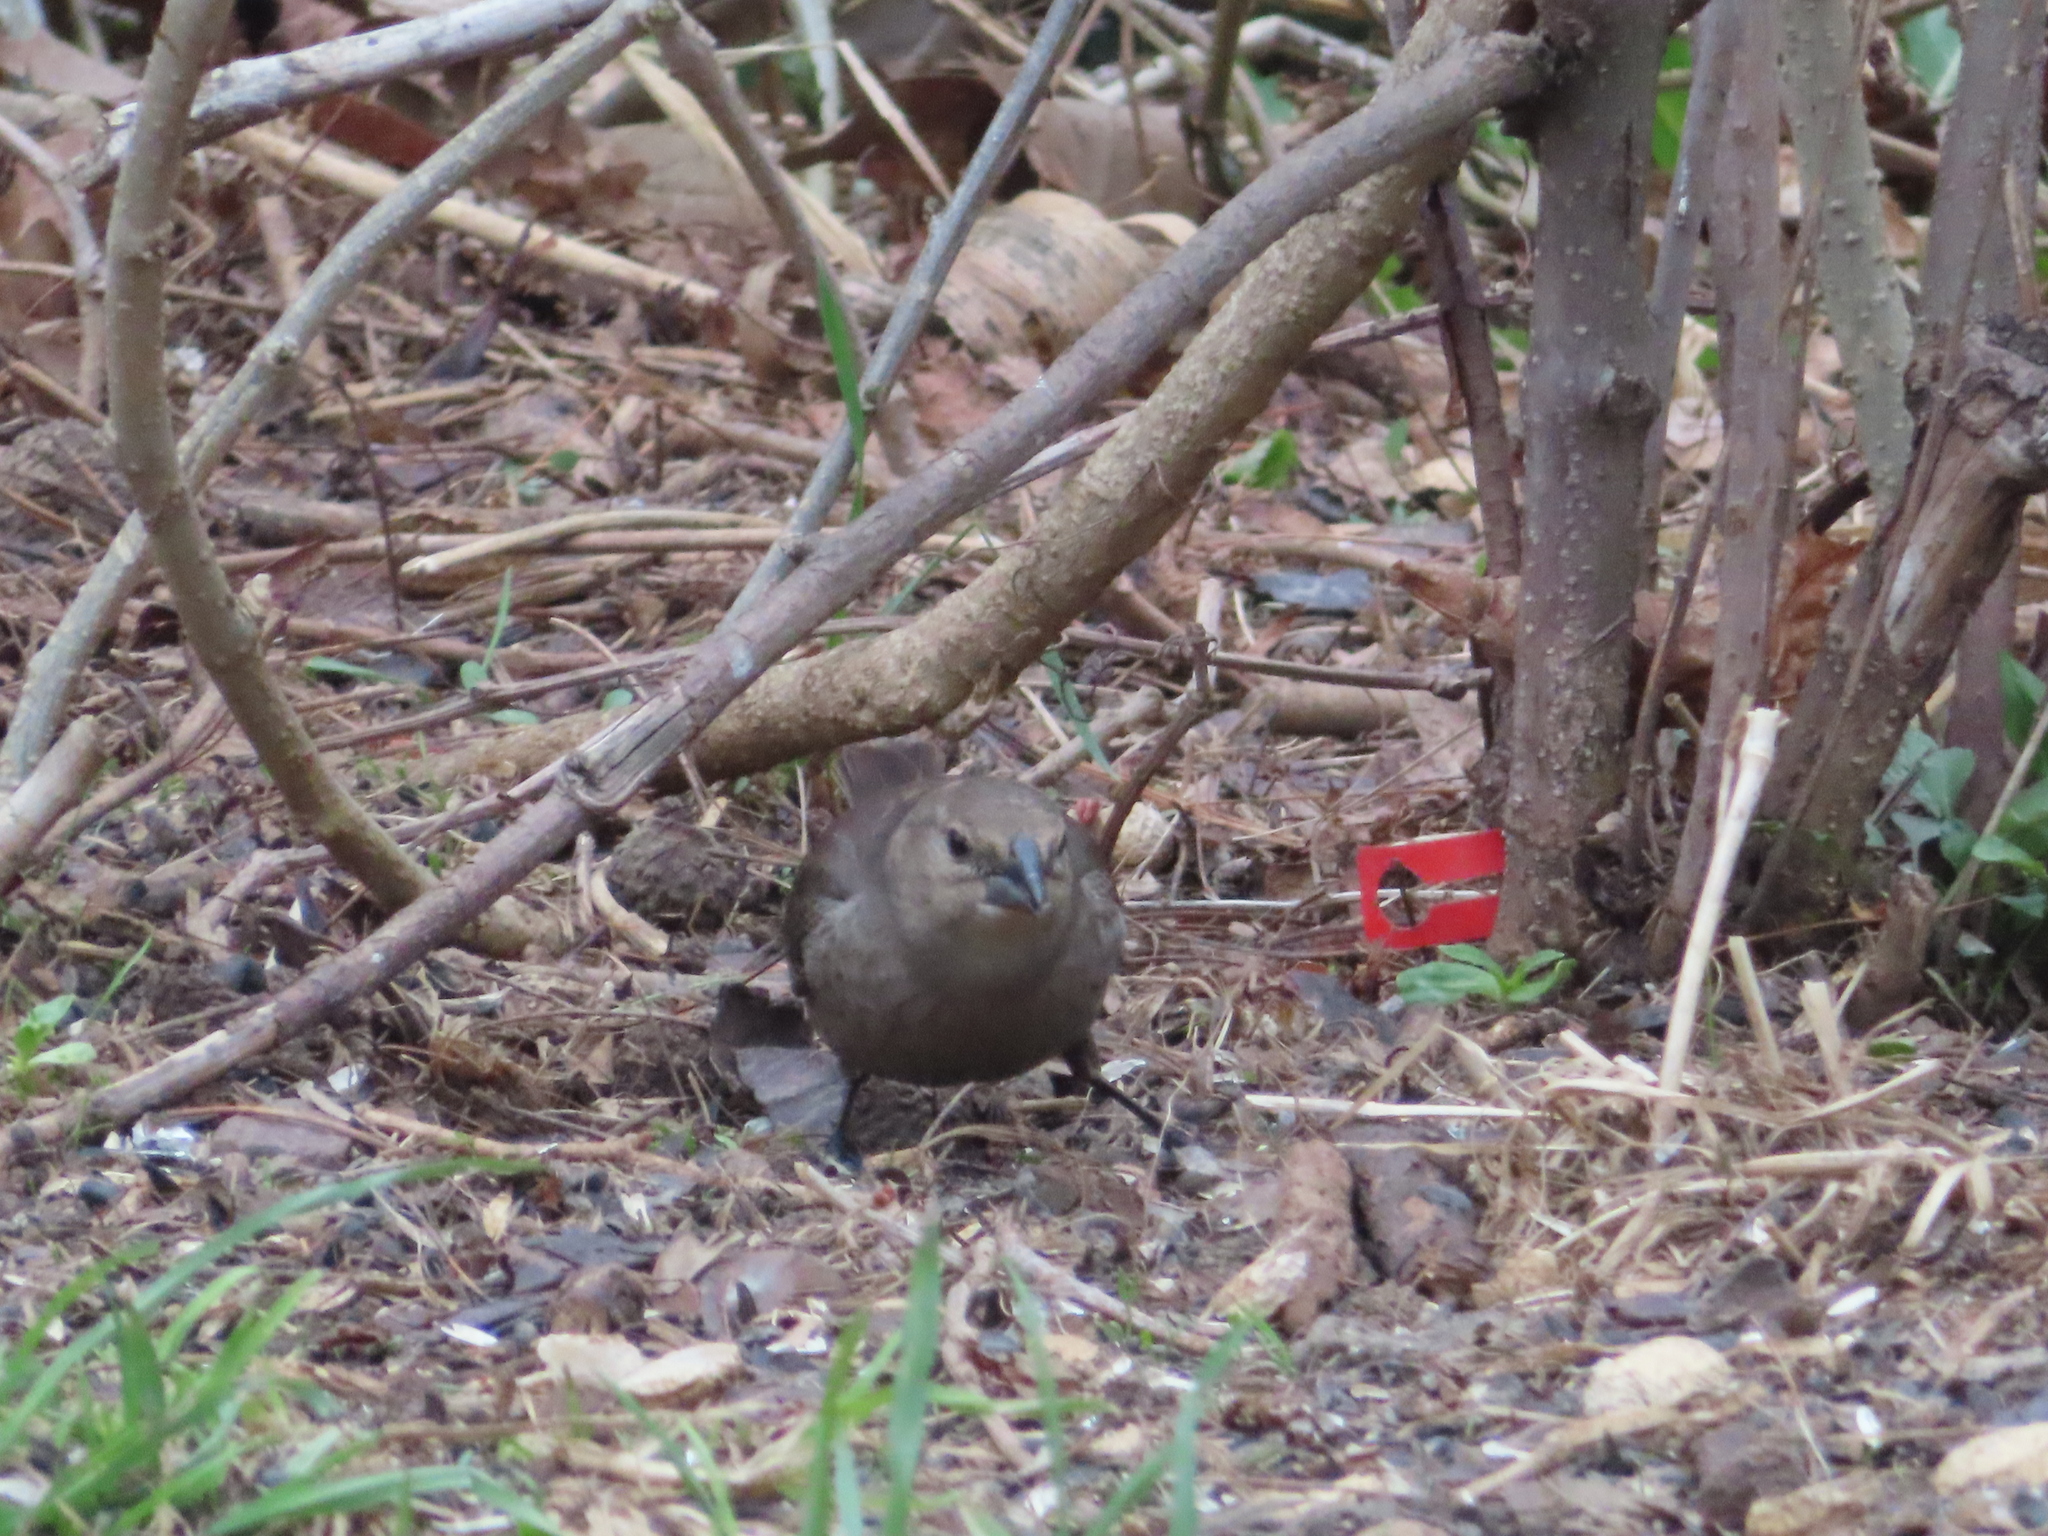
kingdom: Animalia
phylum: Chordata
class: Aves
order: Passeriformes
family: Icteridae
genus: Molothrus
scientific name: Molothrus ater
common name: Brown-headed cowbird
